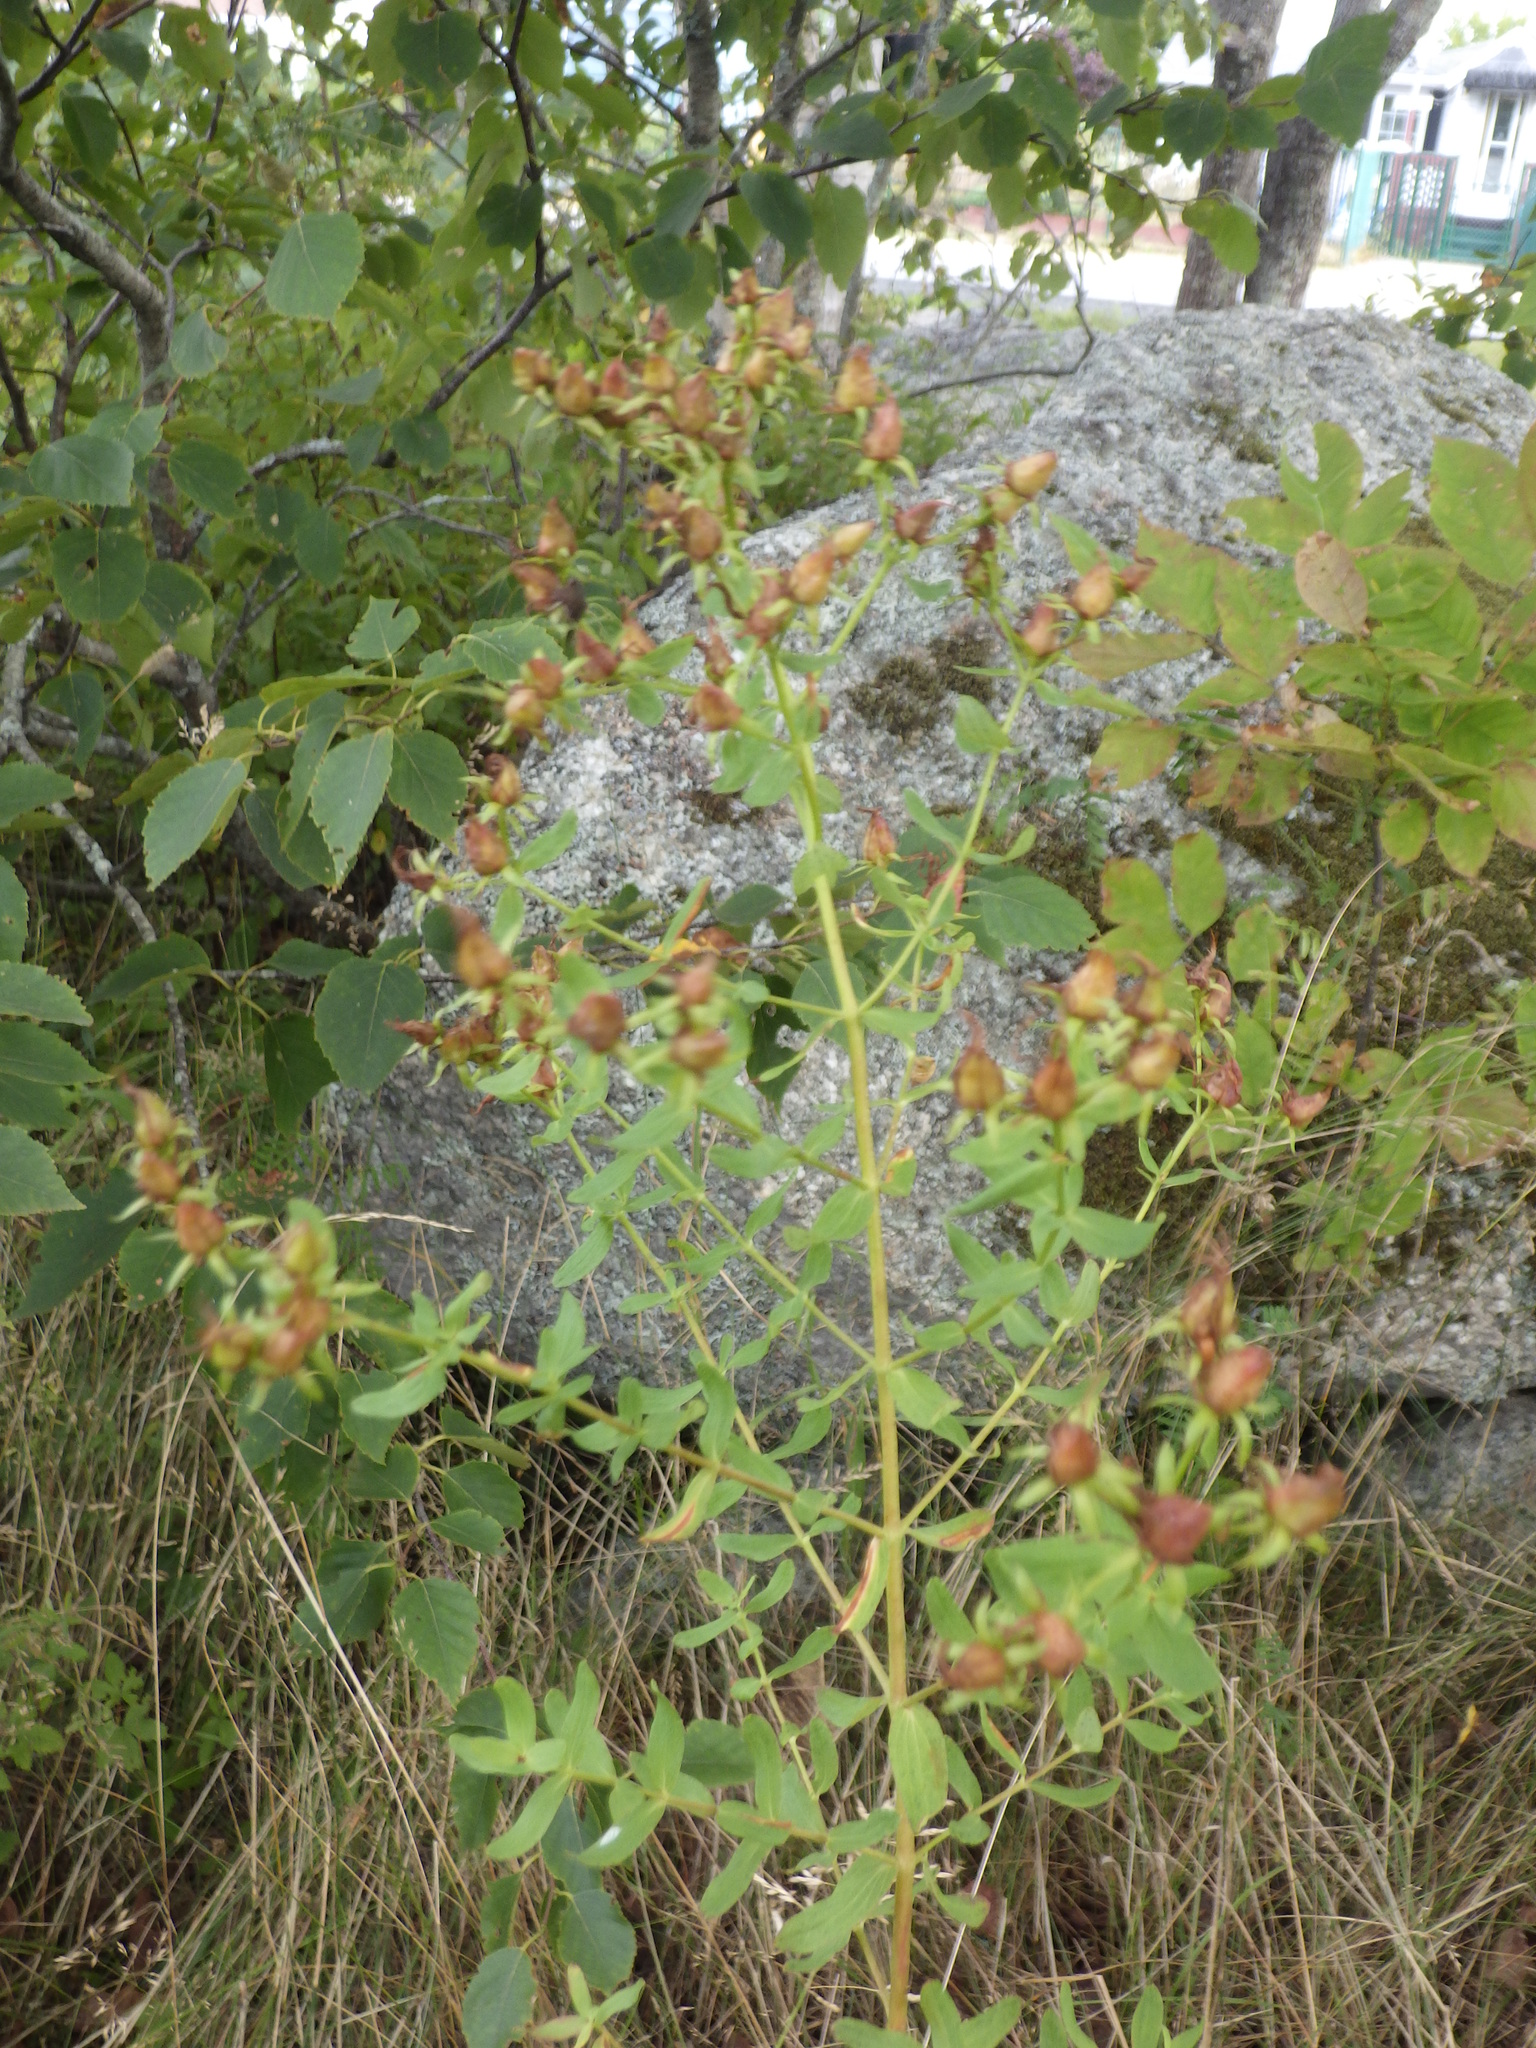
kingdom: Plantae
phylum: Tracheophyta
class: Magnoliopsida
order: Malpighiales
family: Hypericaceae
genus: Hypericum
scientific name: Hypericum perforatum
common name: Common st. johnswort
